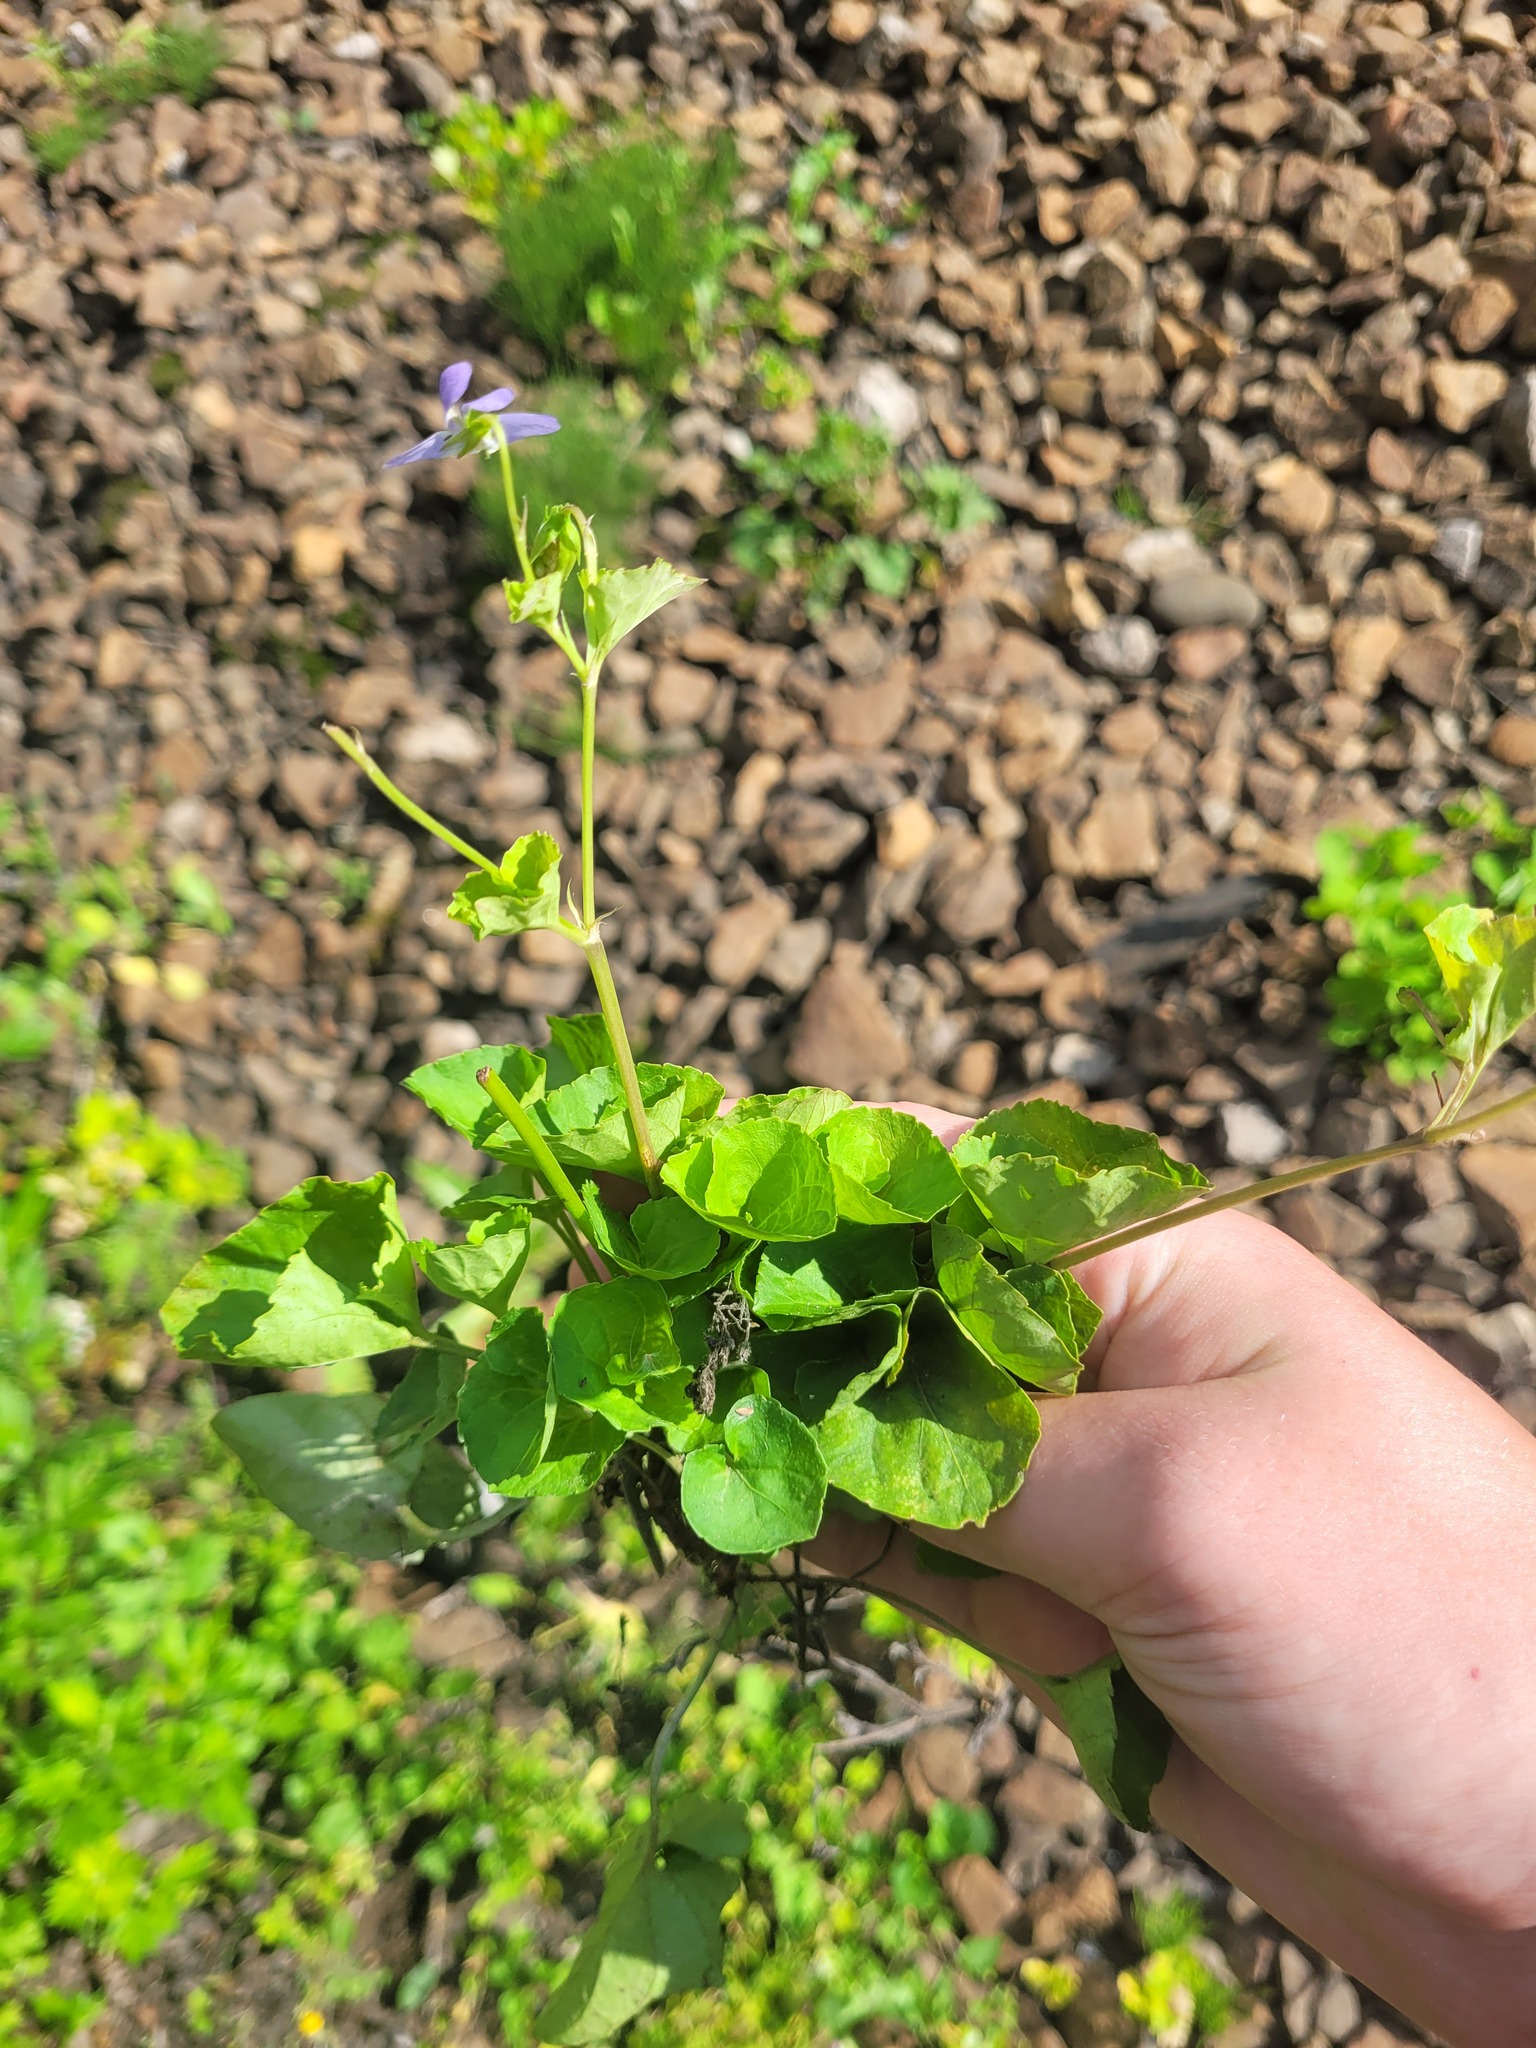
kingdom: Plantae
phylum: Tracheophyta
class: Magnoliopsida
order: Malpighiales
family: Violaceae
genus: Viola
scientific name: Viola riviniana
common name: Common dog-violet
